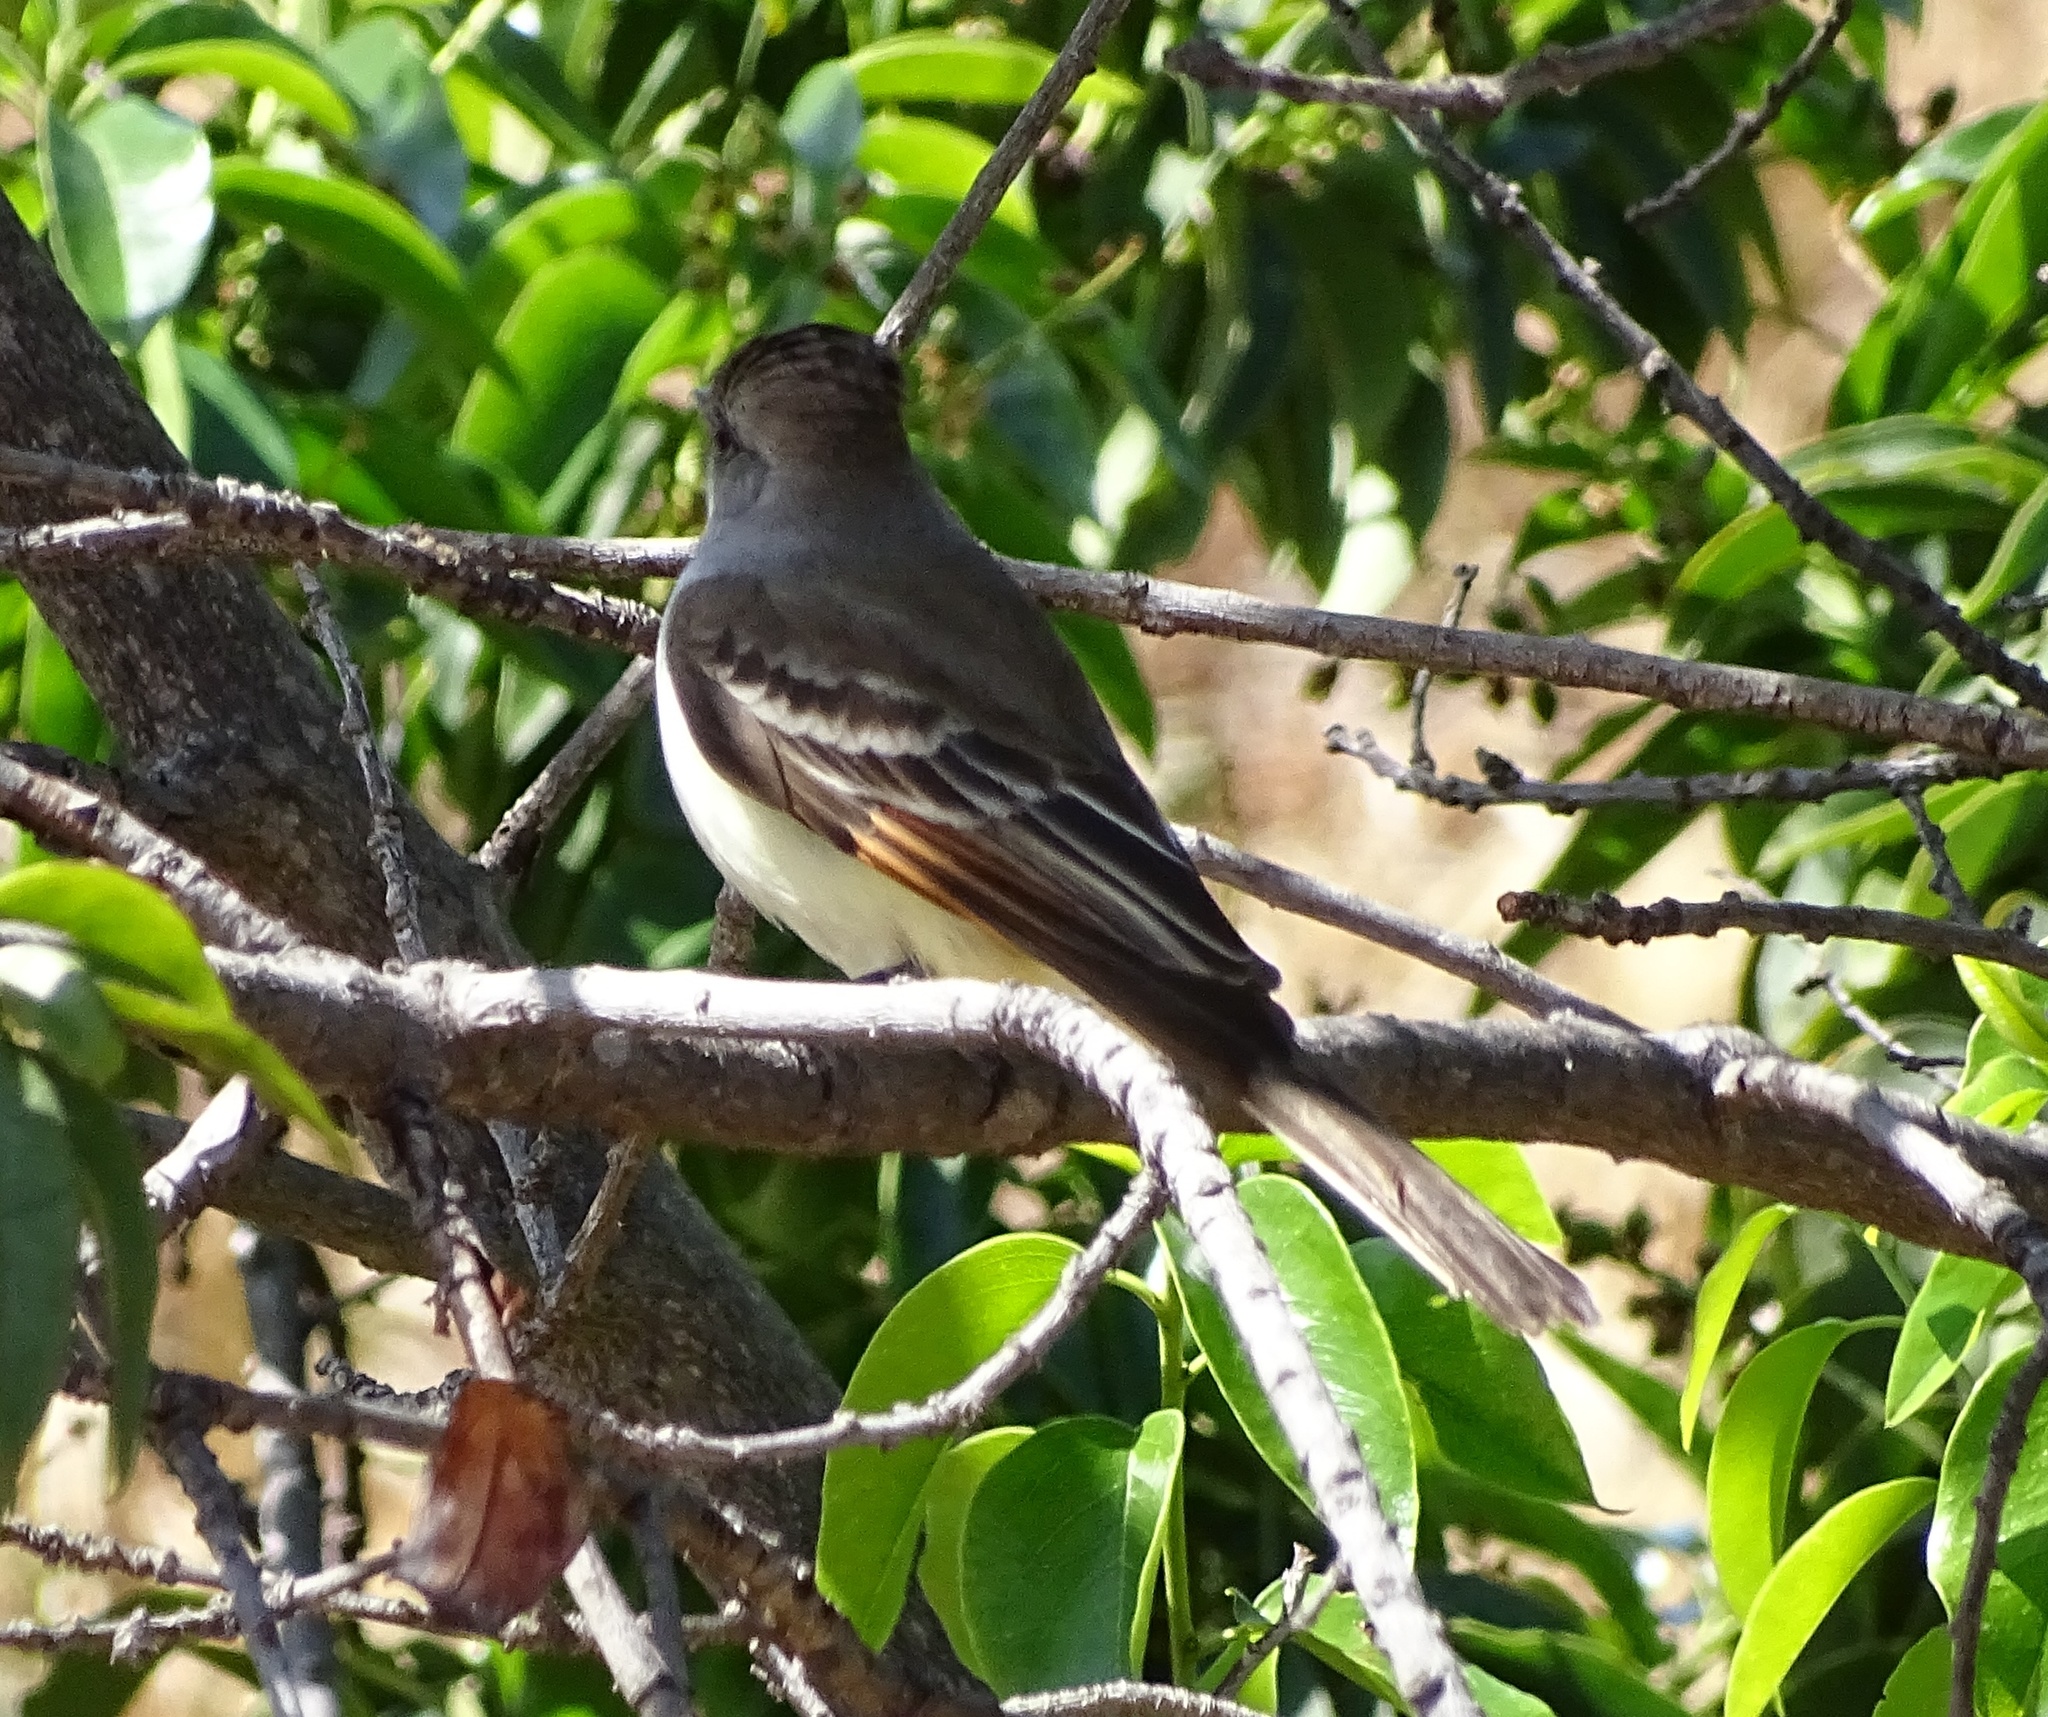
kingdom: Animalia
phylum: Chordata
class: Aves
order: Passeriformes
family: Tyrannidae
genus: Myiarchus
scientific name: Myiarchus cinerascens
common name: Ash-throated flycatcher
